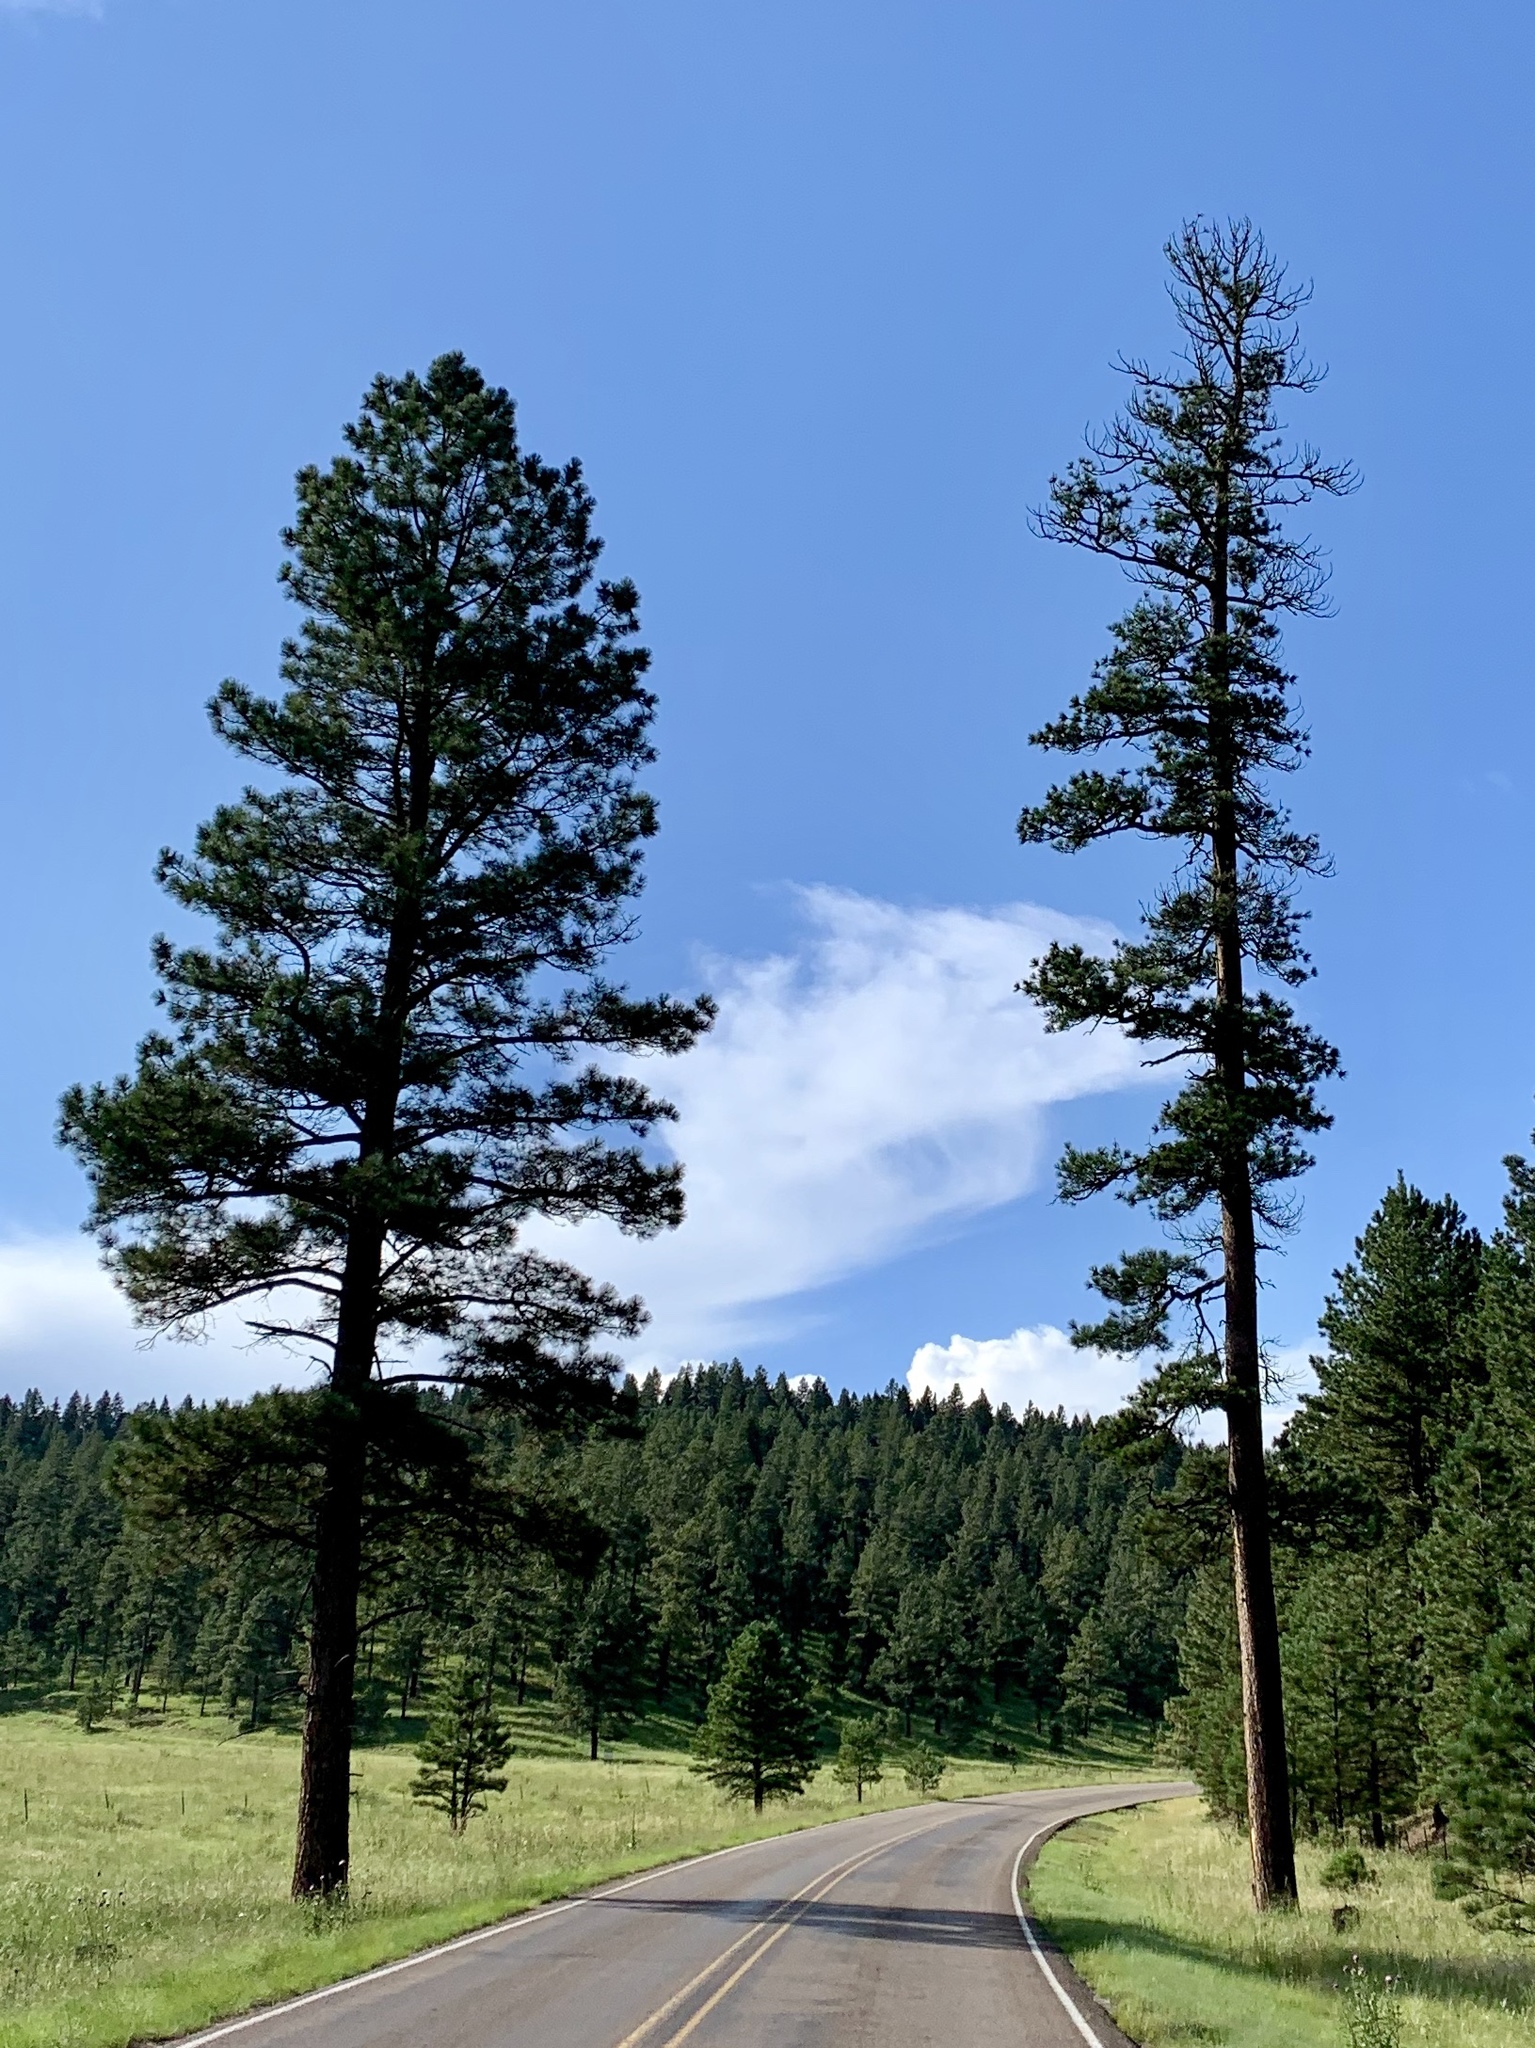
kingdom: Plantae
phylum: Tracheophyta
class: Pinopsida
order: Pinales
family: Pinaceae
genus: Pinus
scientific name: Pinus ponderosa
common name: Western yellow-pine
